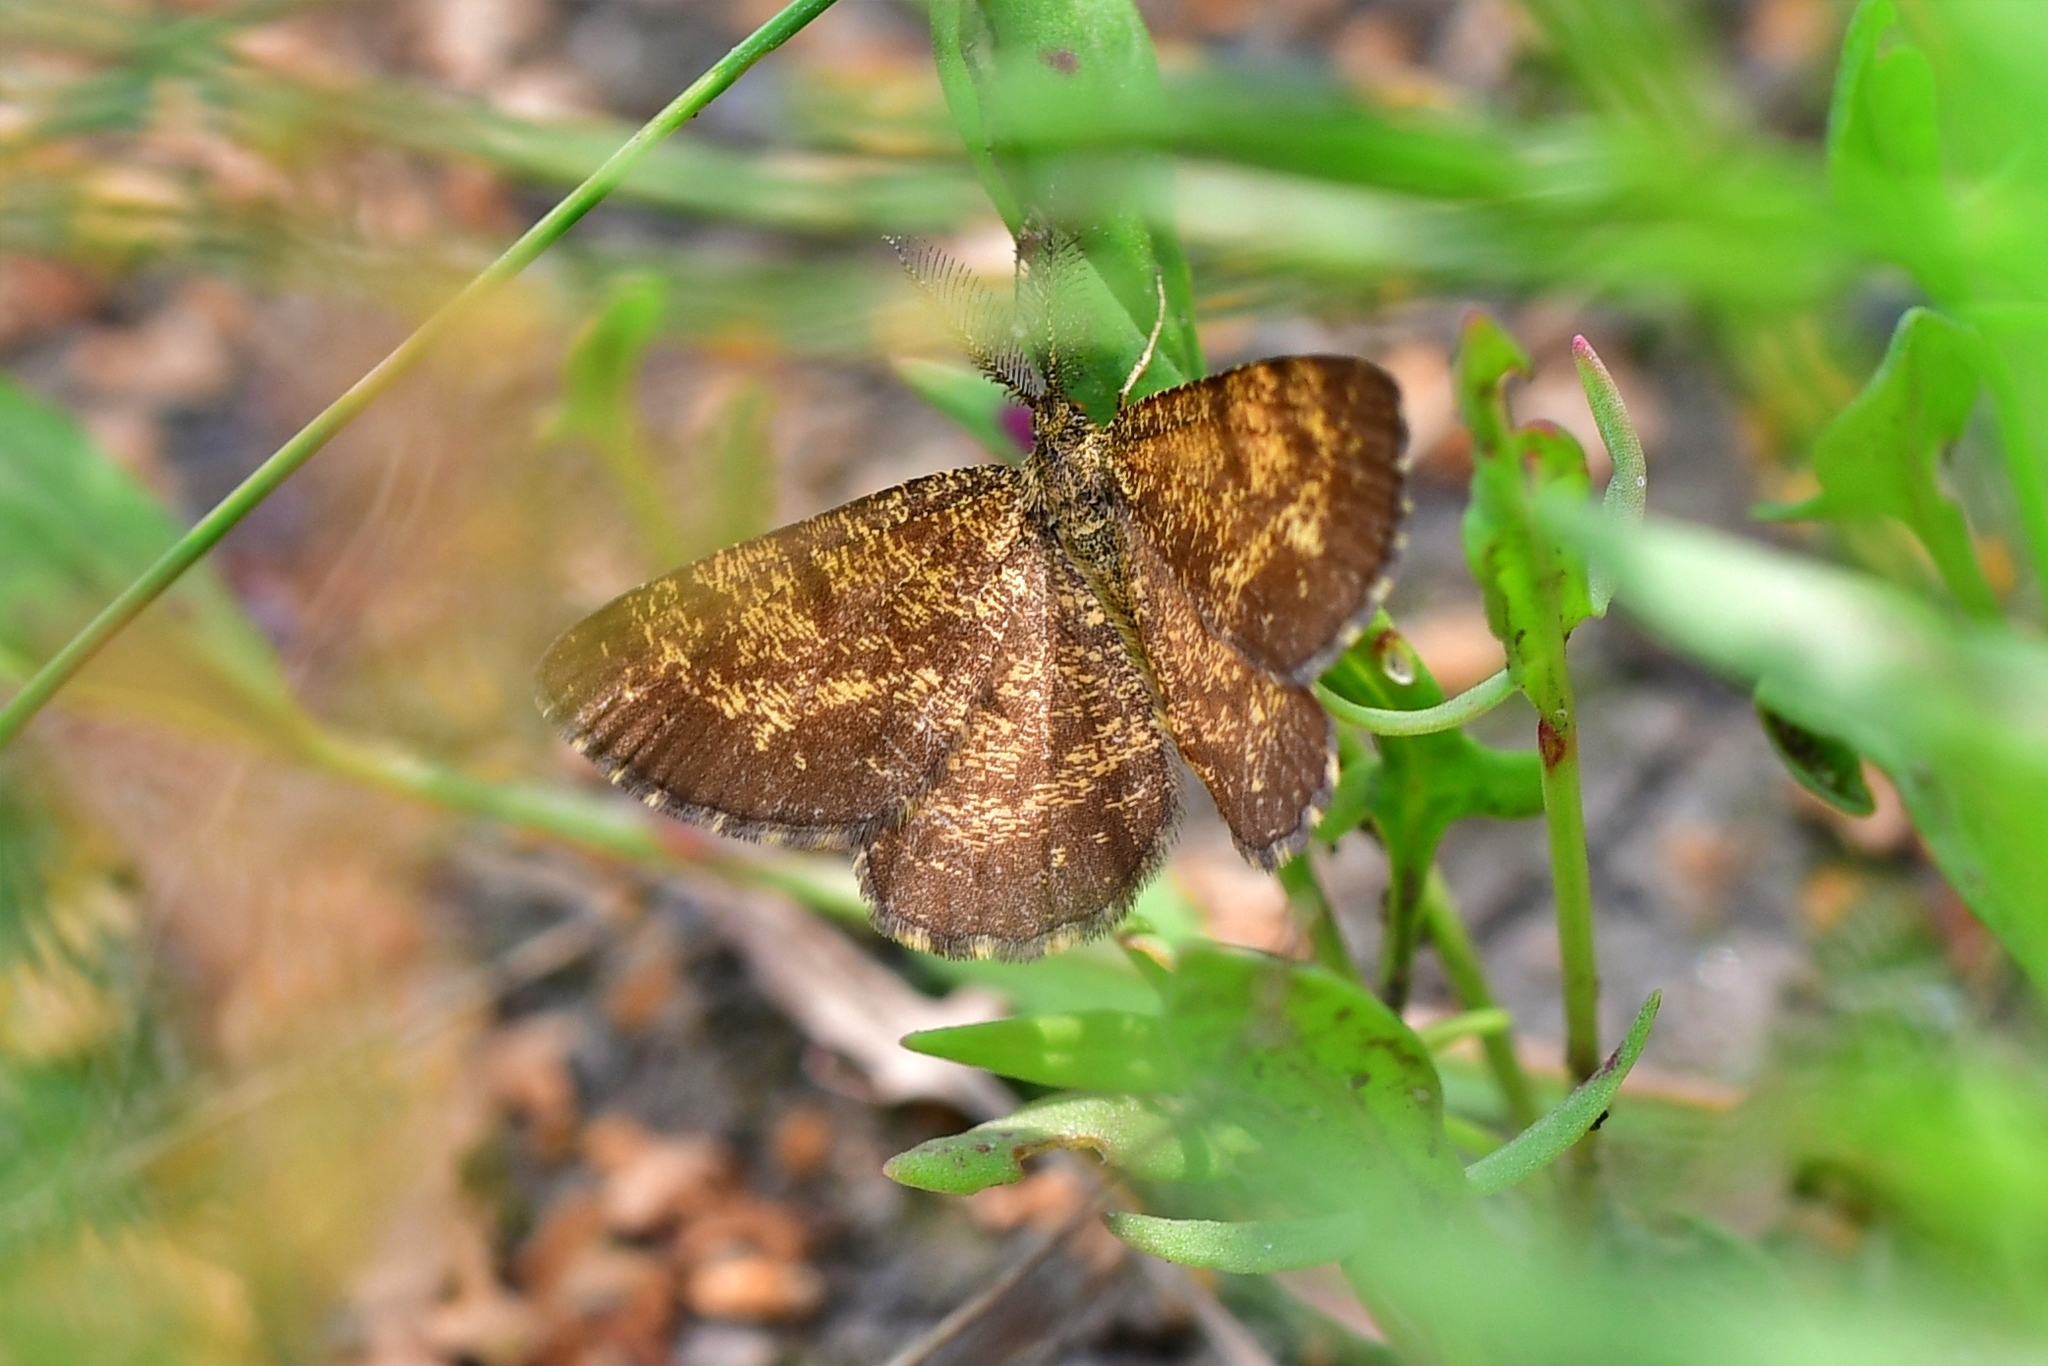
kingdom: Animalia
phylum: Arthropoda
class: Insecta
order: Lepidoptera
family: Geometridae
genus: Ematurga
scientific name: Ematurga atomaria
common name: Common heath
